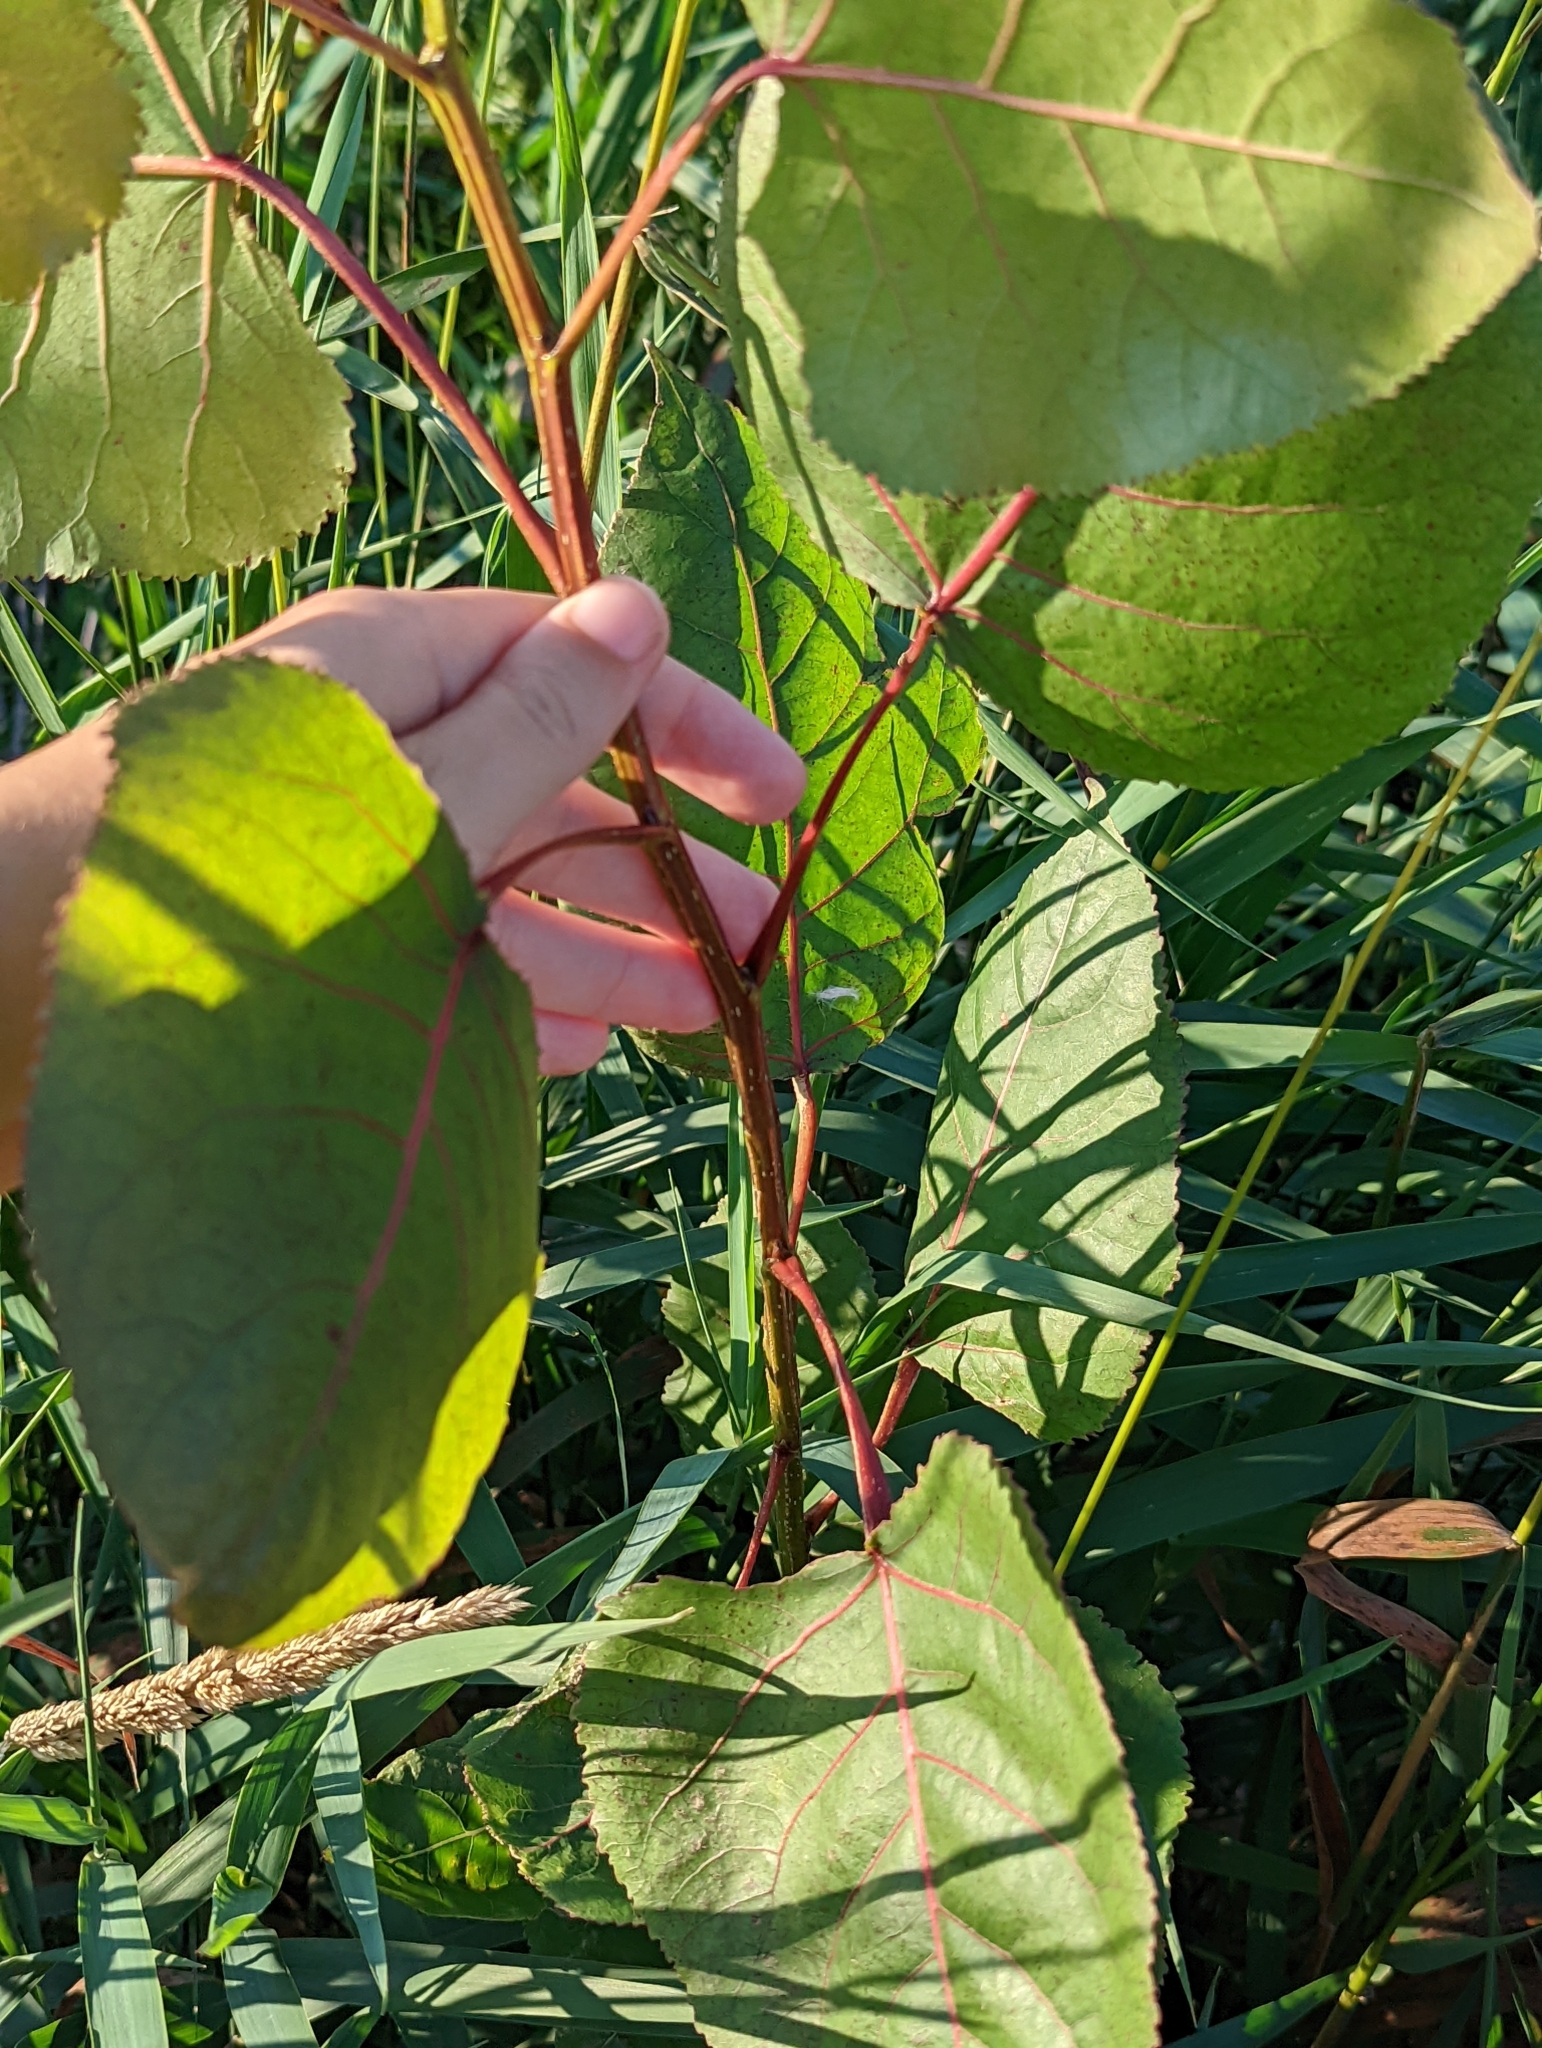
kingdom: Plantae
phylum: Tracheophyta
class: Magnoliopsida
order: Malpighiales
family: Salicaceae
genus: Populus
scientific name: Populus deltoides
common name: Eastern cottonwood
